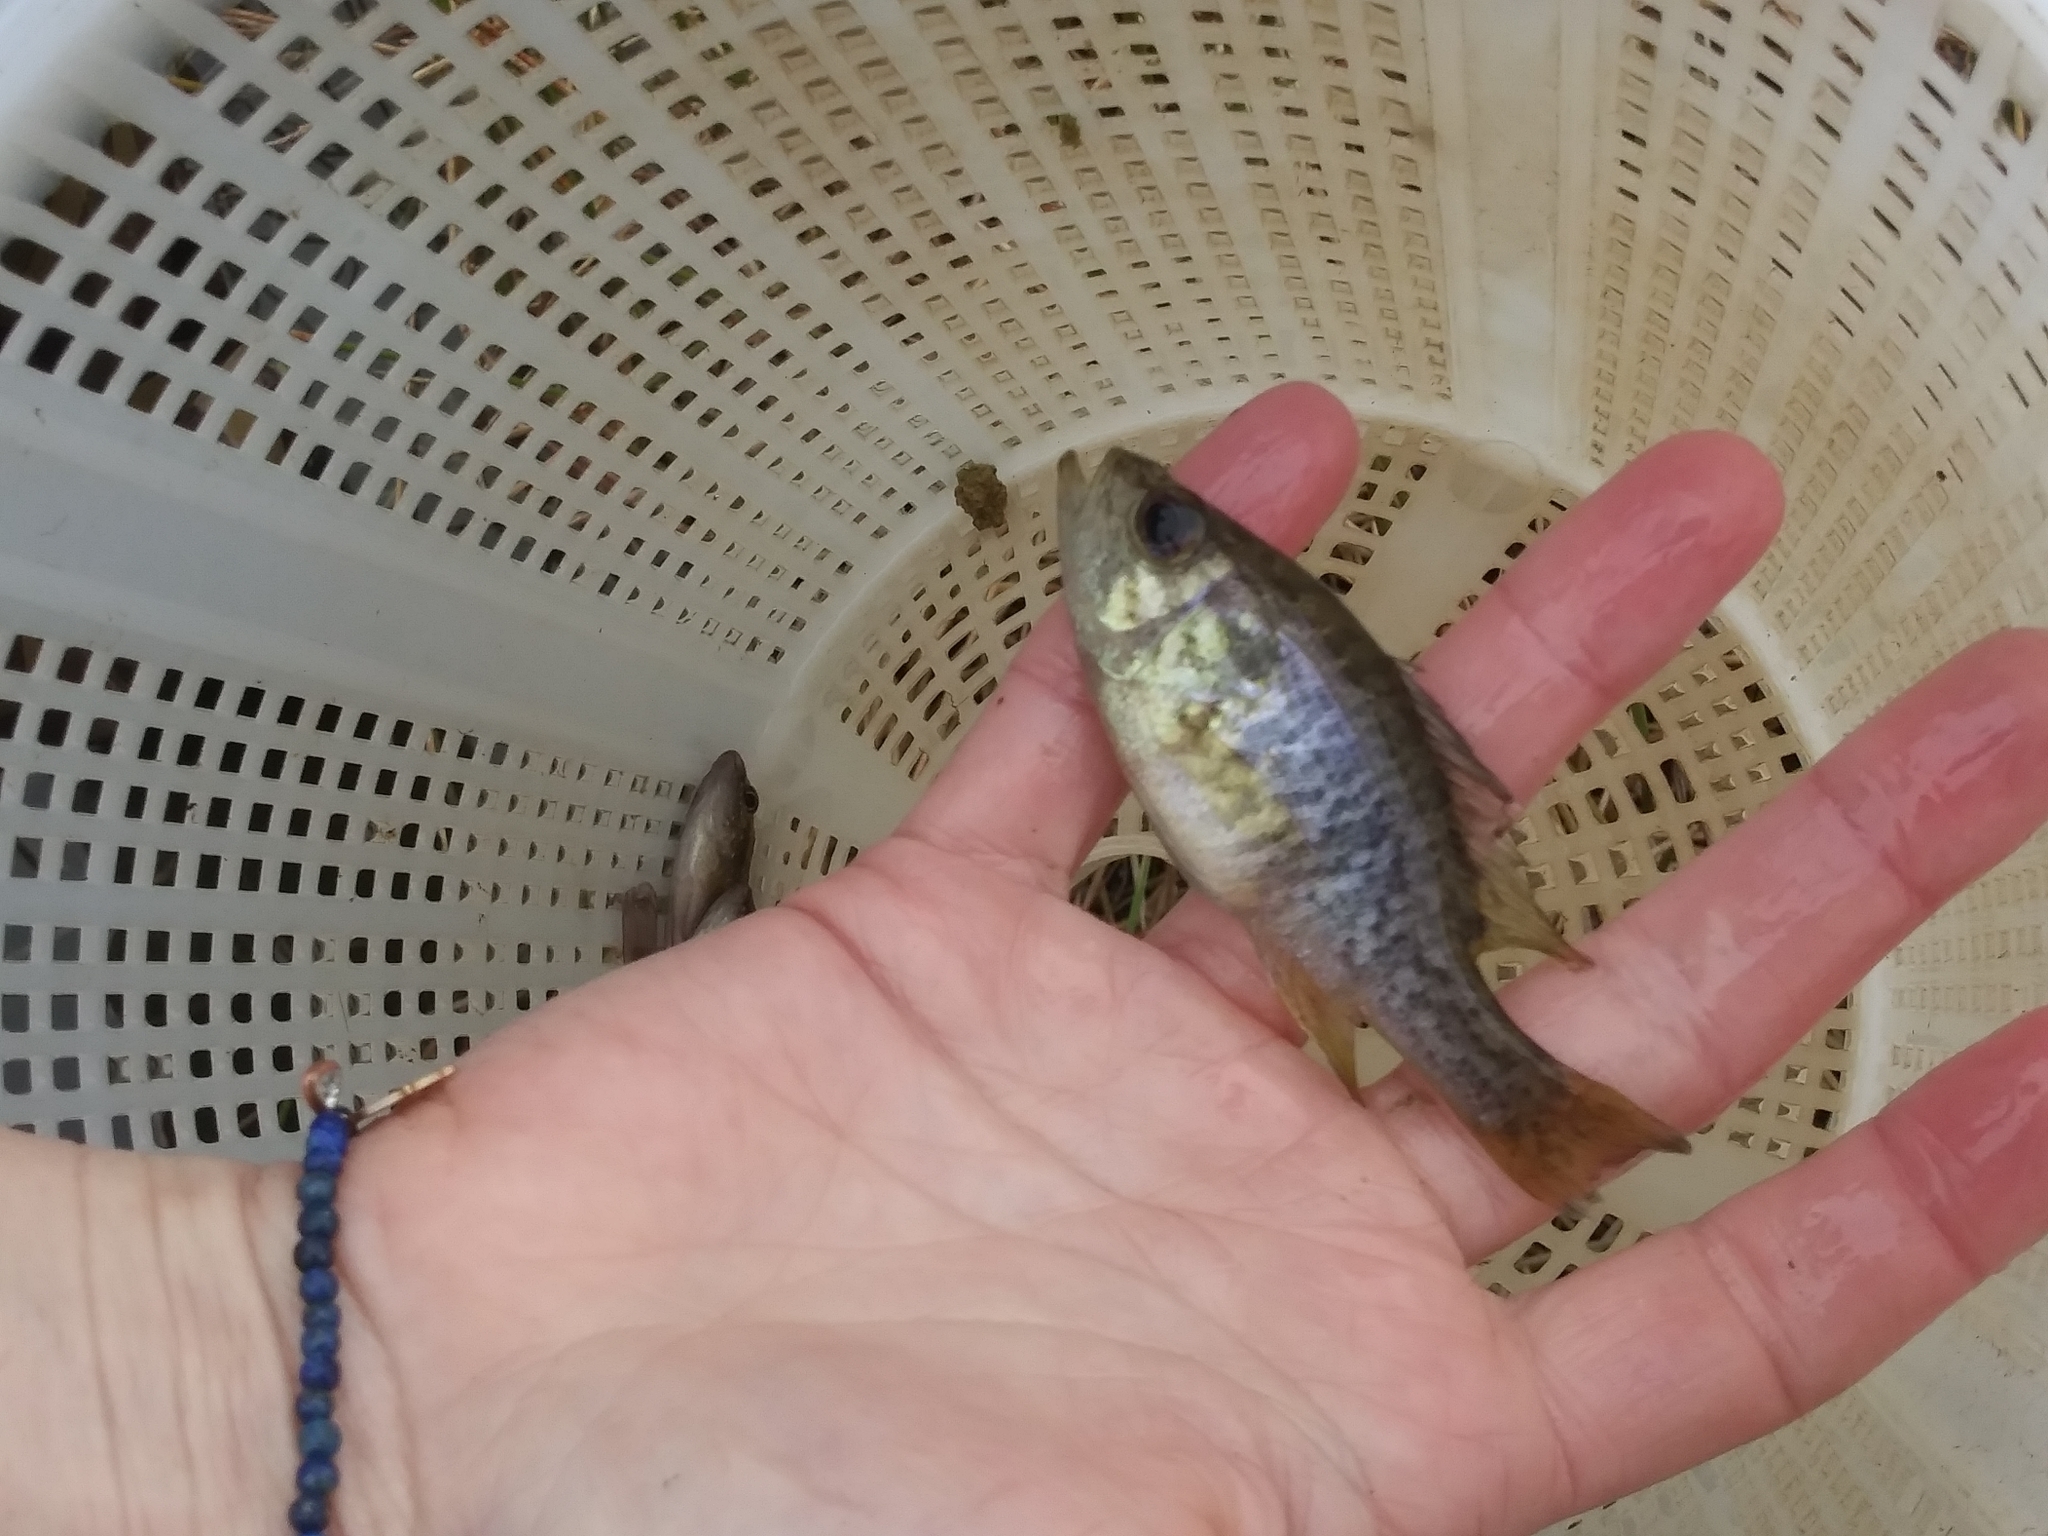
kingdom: Animalia
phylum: Chordata
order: Perciformes
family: Centrarchidae
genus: Lepomis
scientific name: Lepomis gulosus
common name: Warmouth
